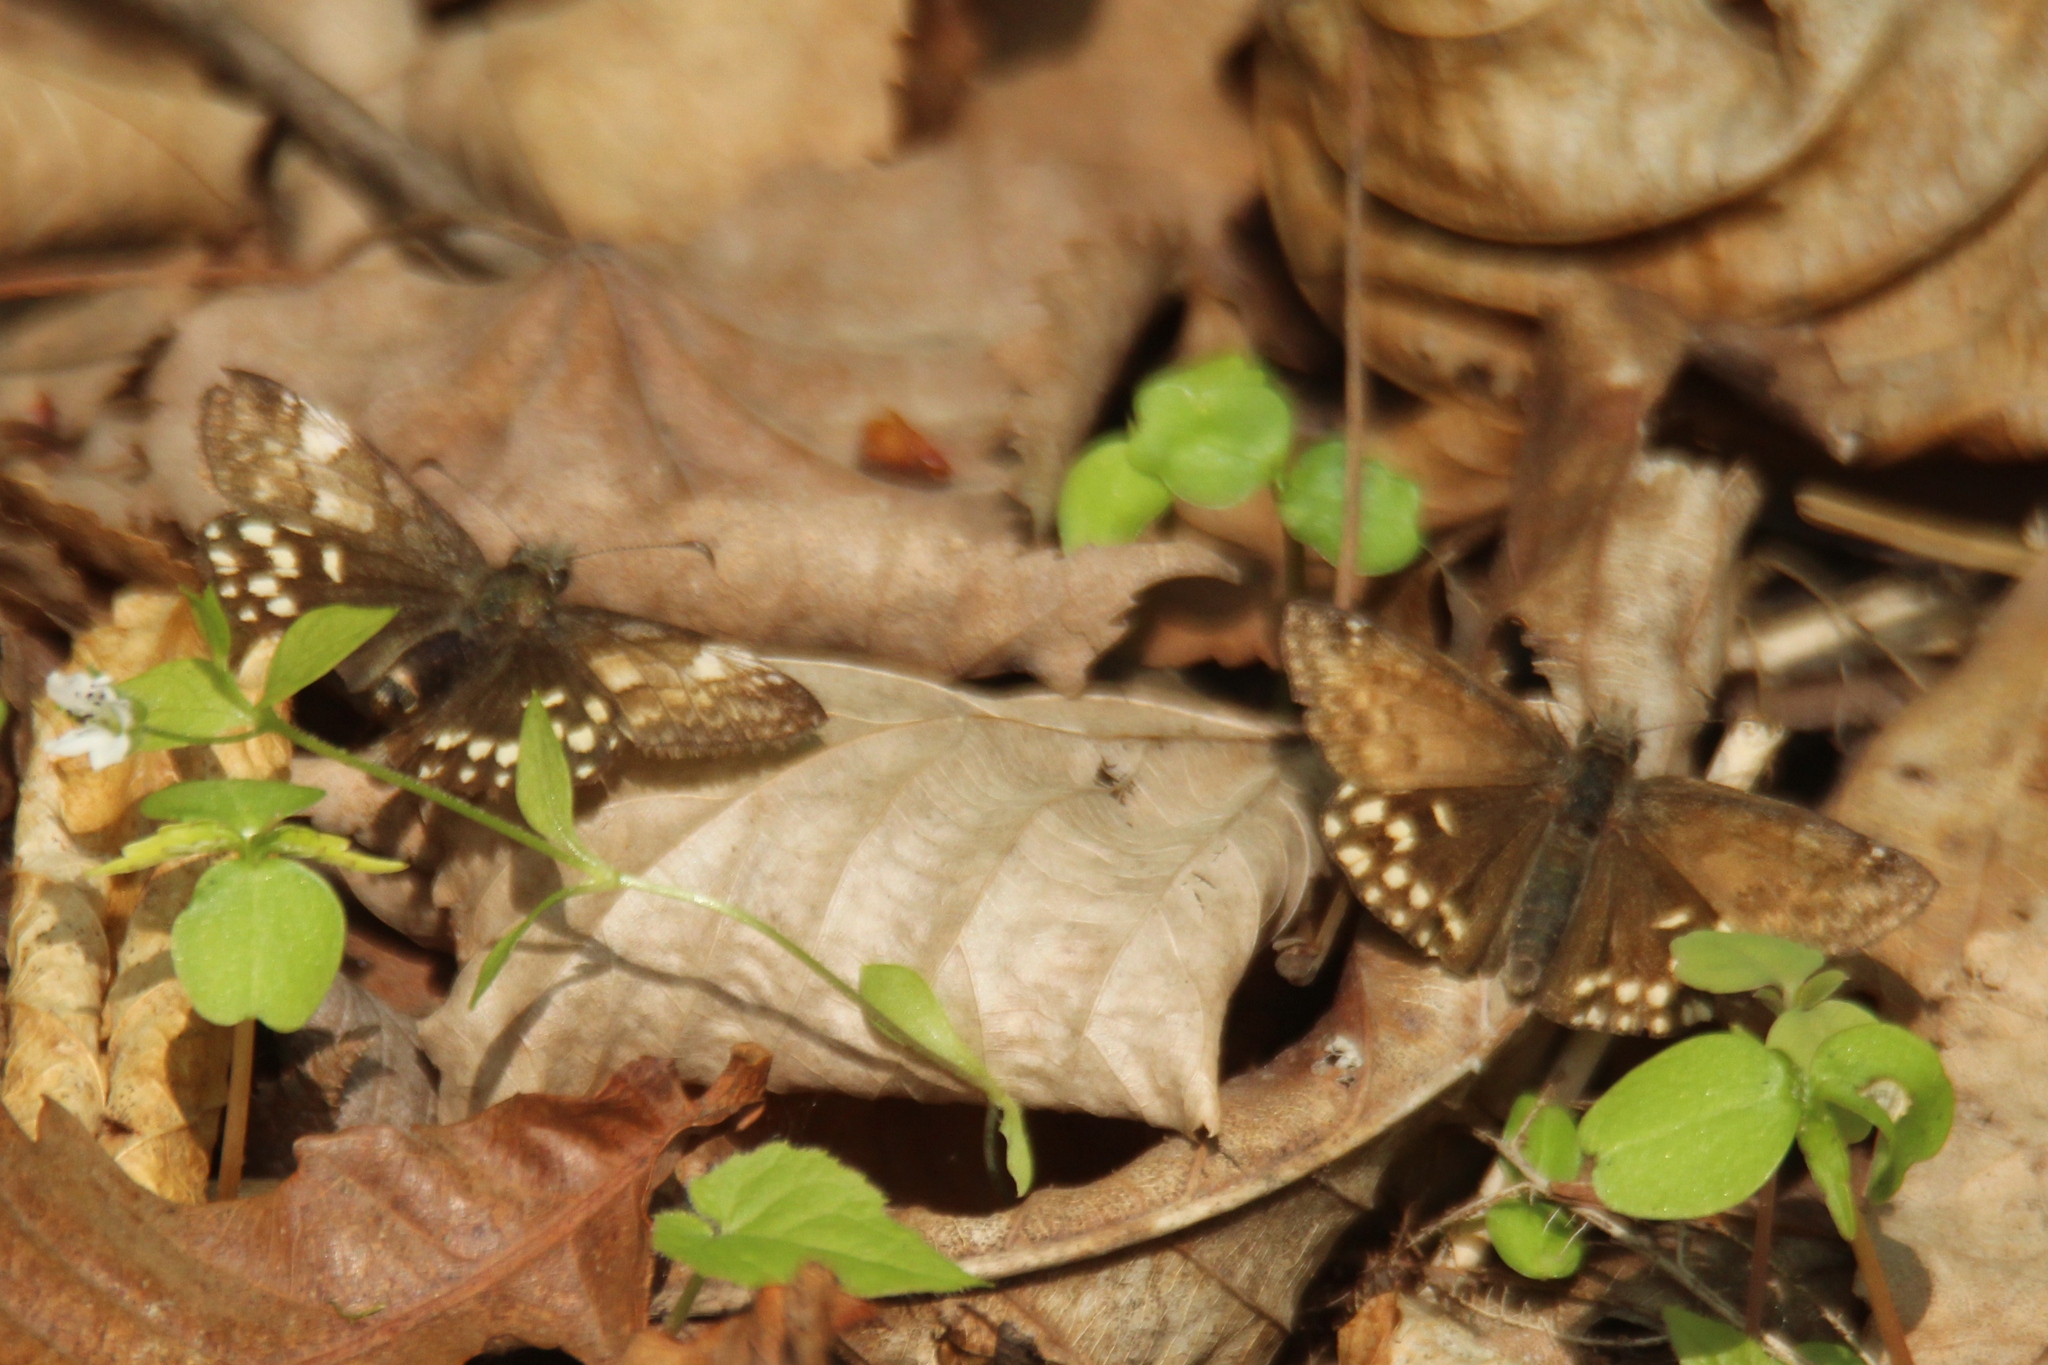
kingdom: Animalia
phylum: Arthropoda
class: Insecta
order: Lepidoptera
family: Hesperiidae
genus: Erynnis
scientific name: Erynnis montanus
